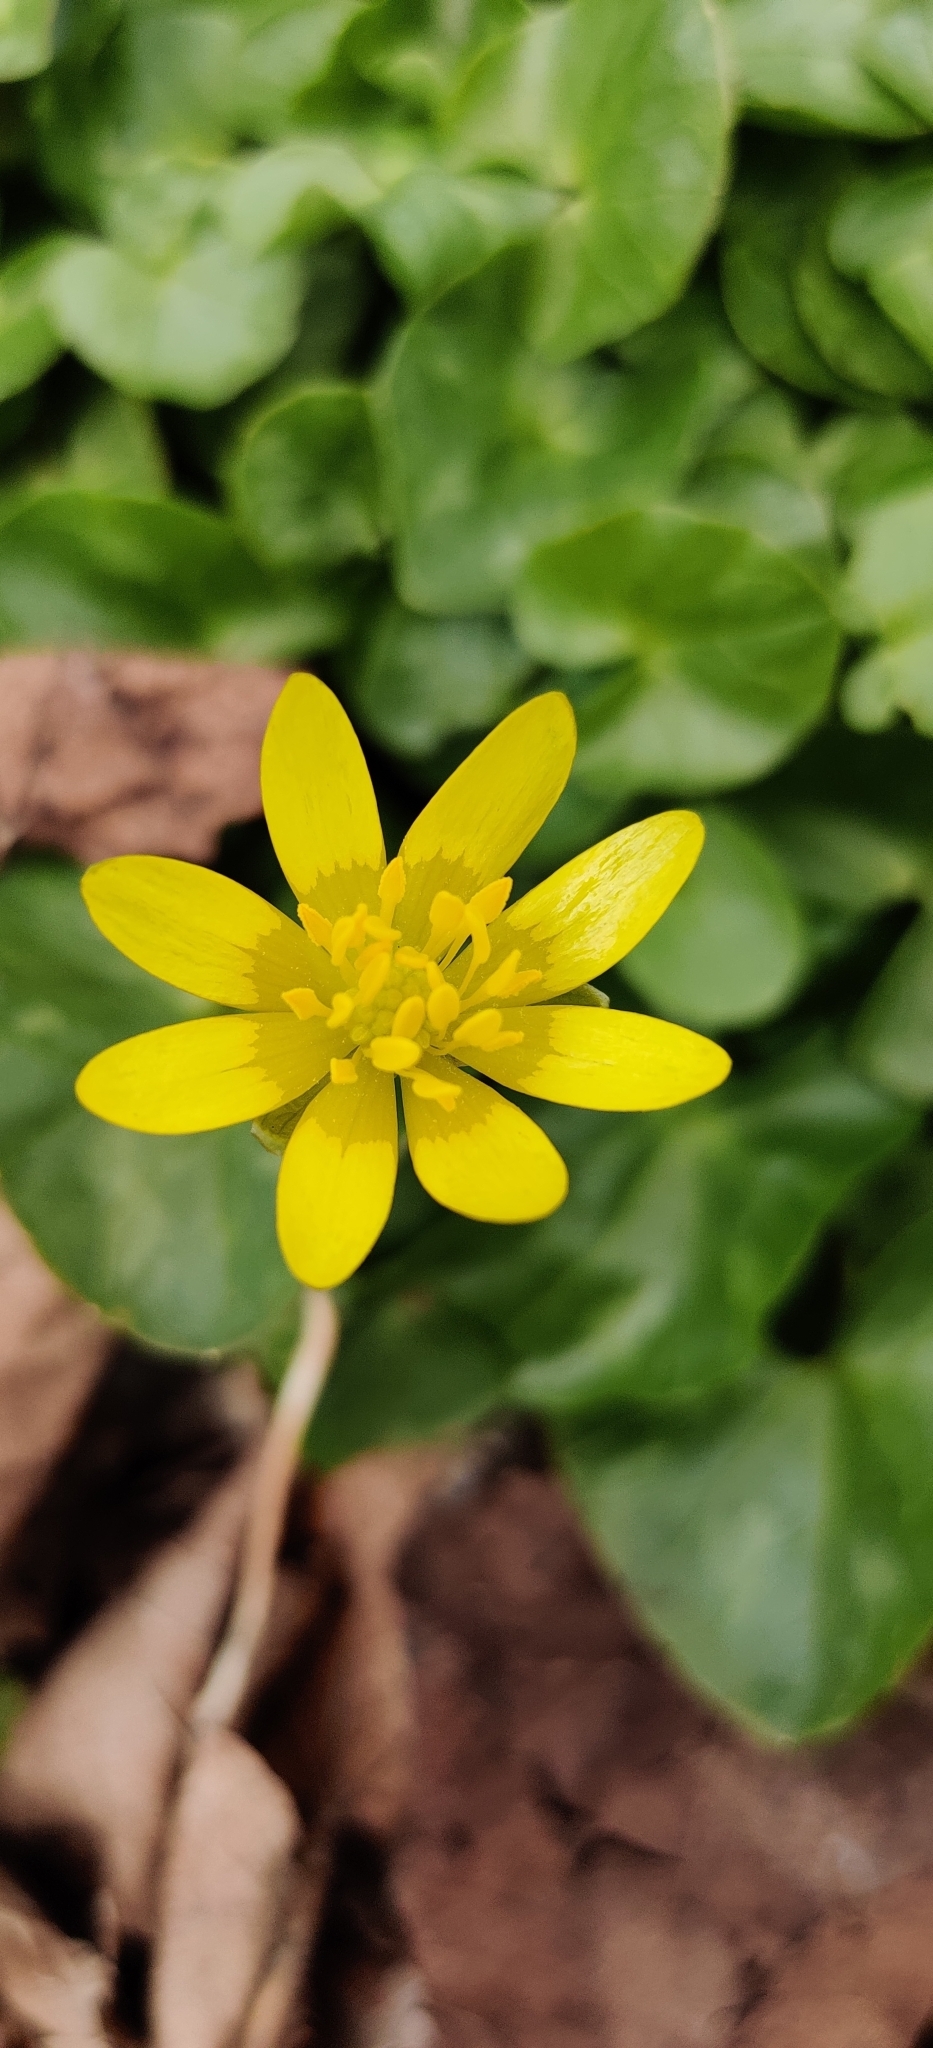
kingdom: Plantae
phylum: Tracheophyta
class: Magnoliopsida
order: Ranunculales
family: Ranunculaceae
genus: Ficaria
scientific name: Ficaria verna
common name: Lesser celandine
